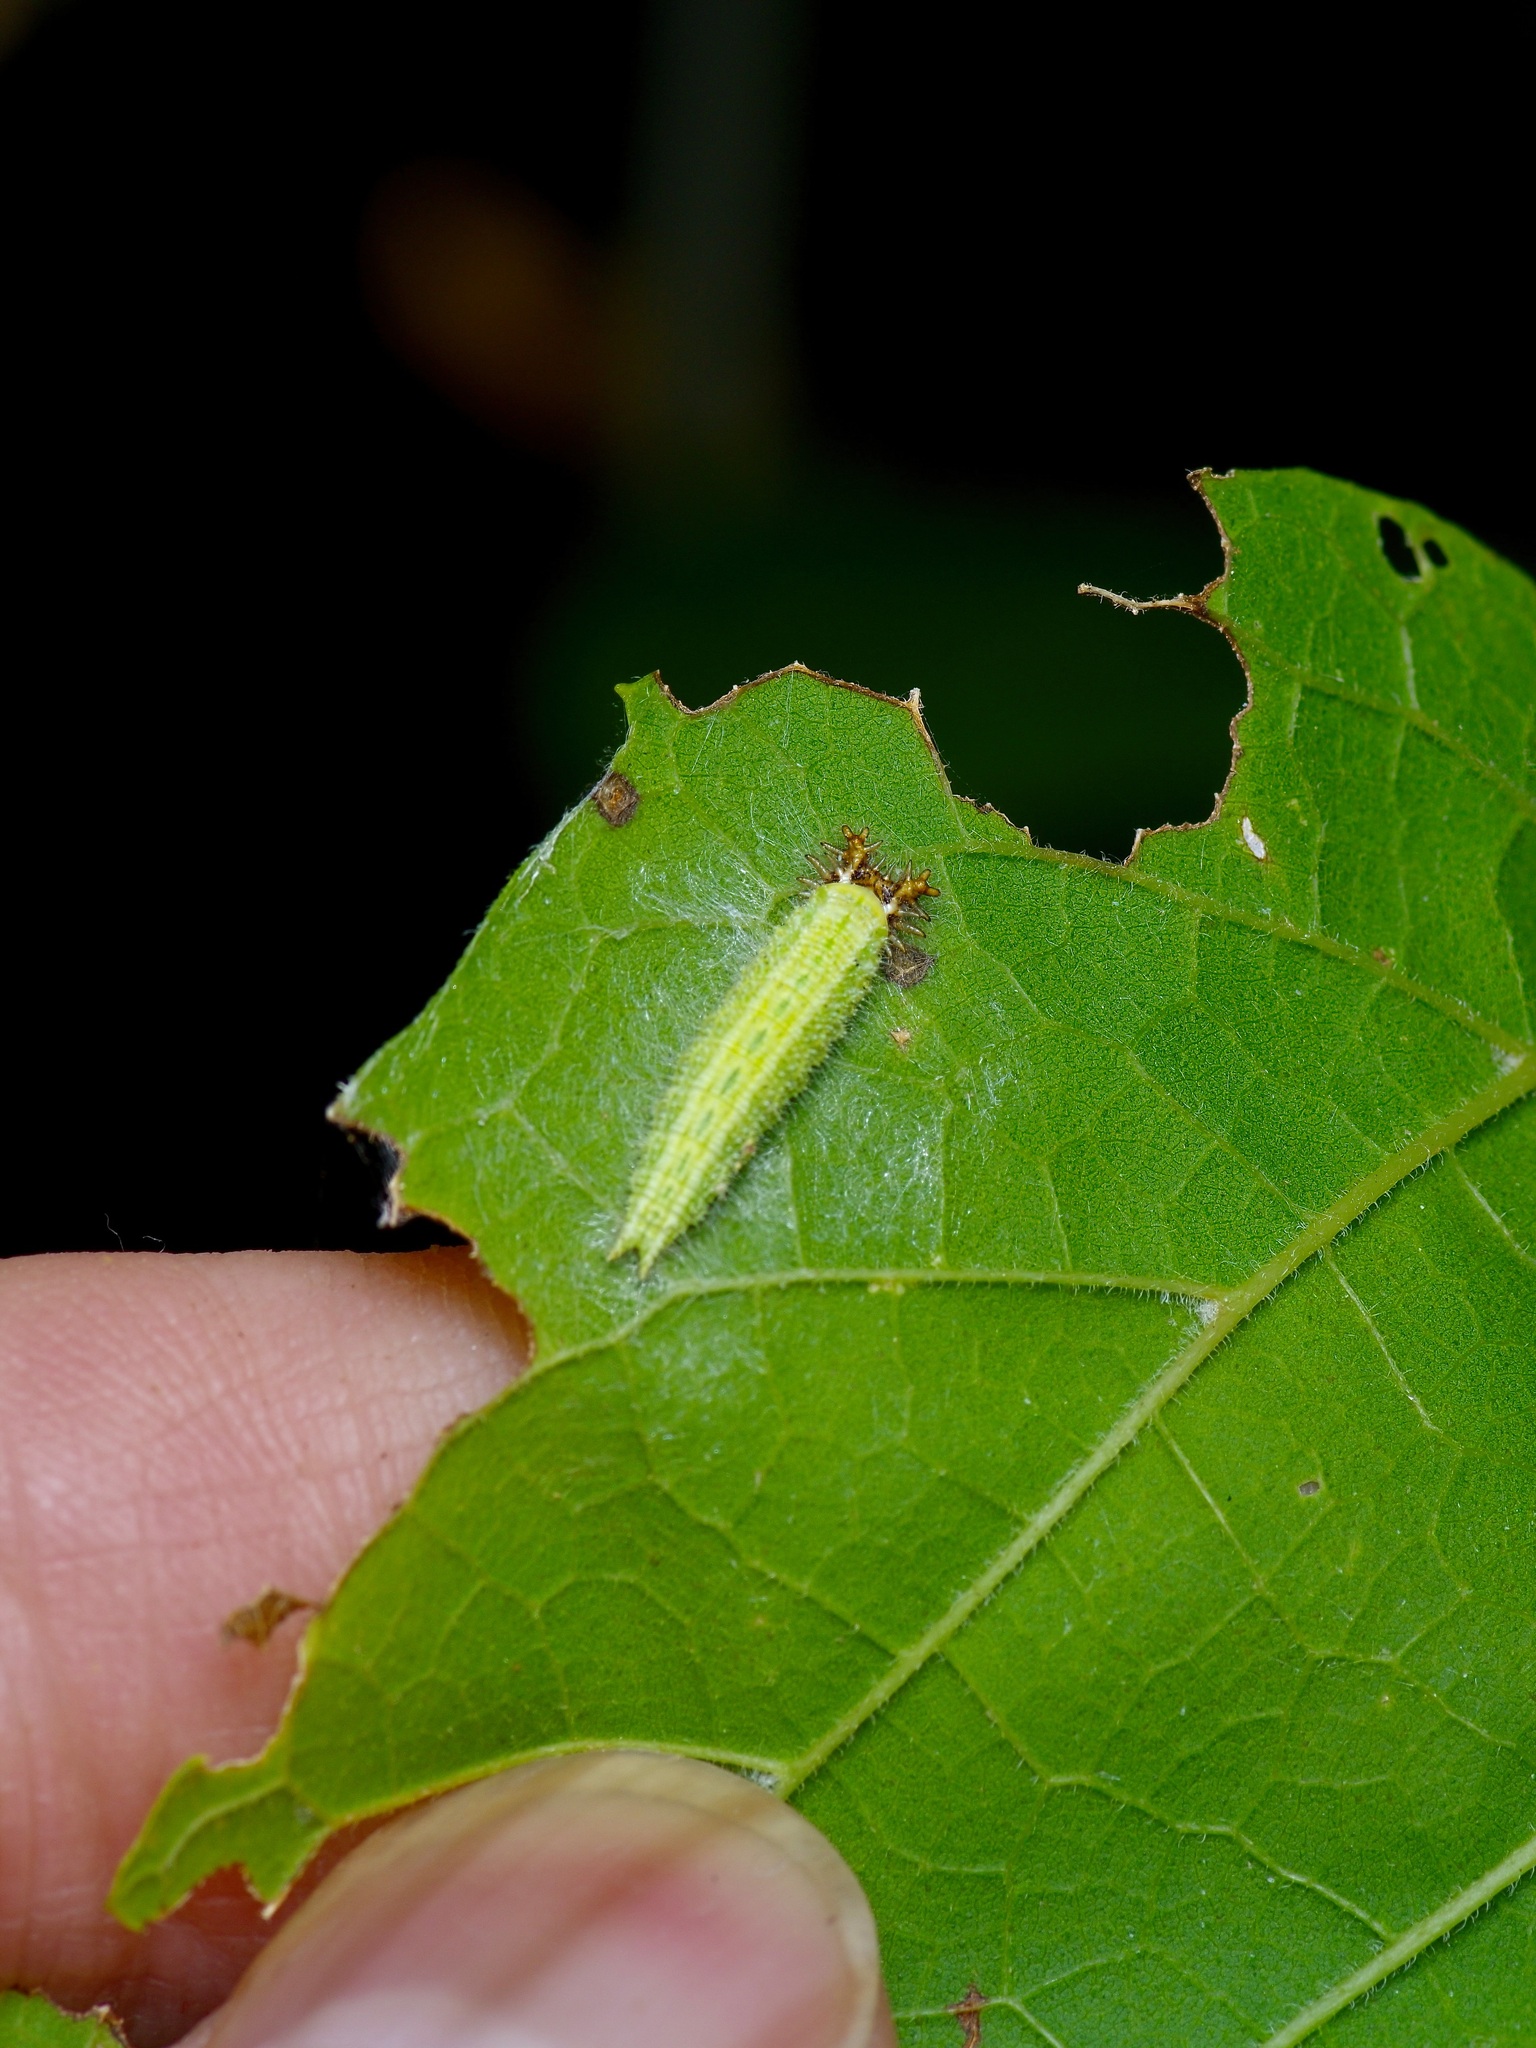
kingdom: Animalia
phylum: Arthropoda
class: Insecta
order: Lepidoptera
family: Nymphalidae
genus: Asterocampa
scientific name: Asterocampa clyton
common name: Tawny emperor
